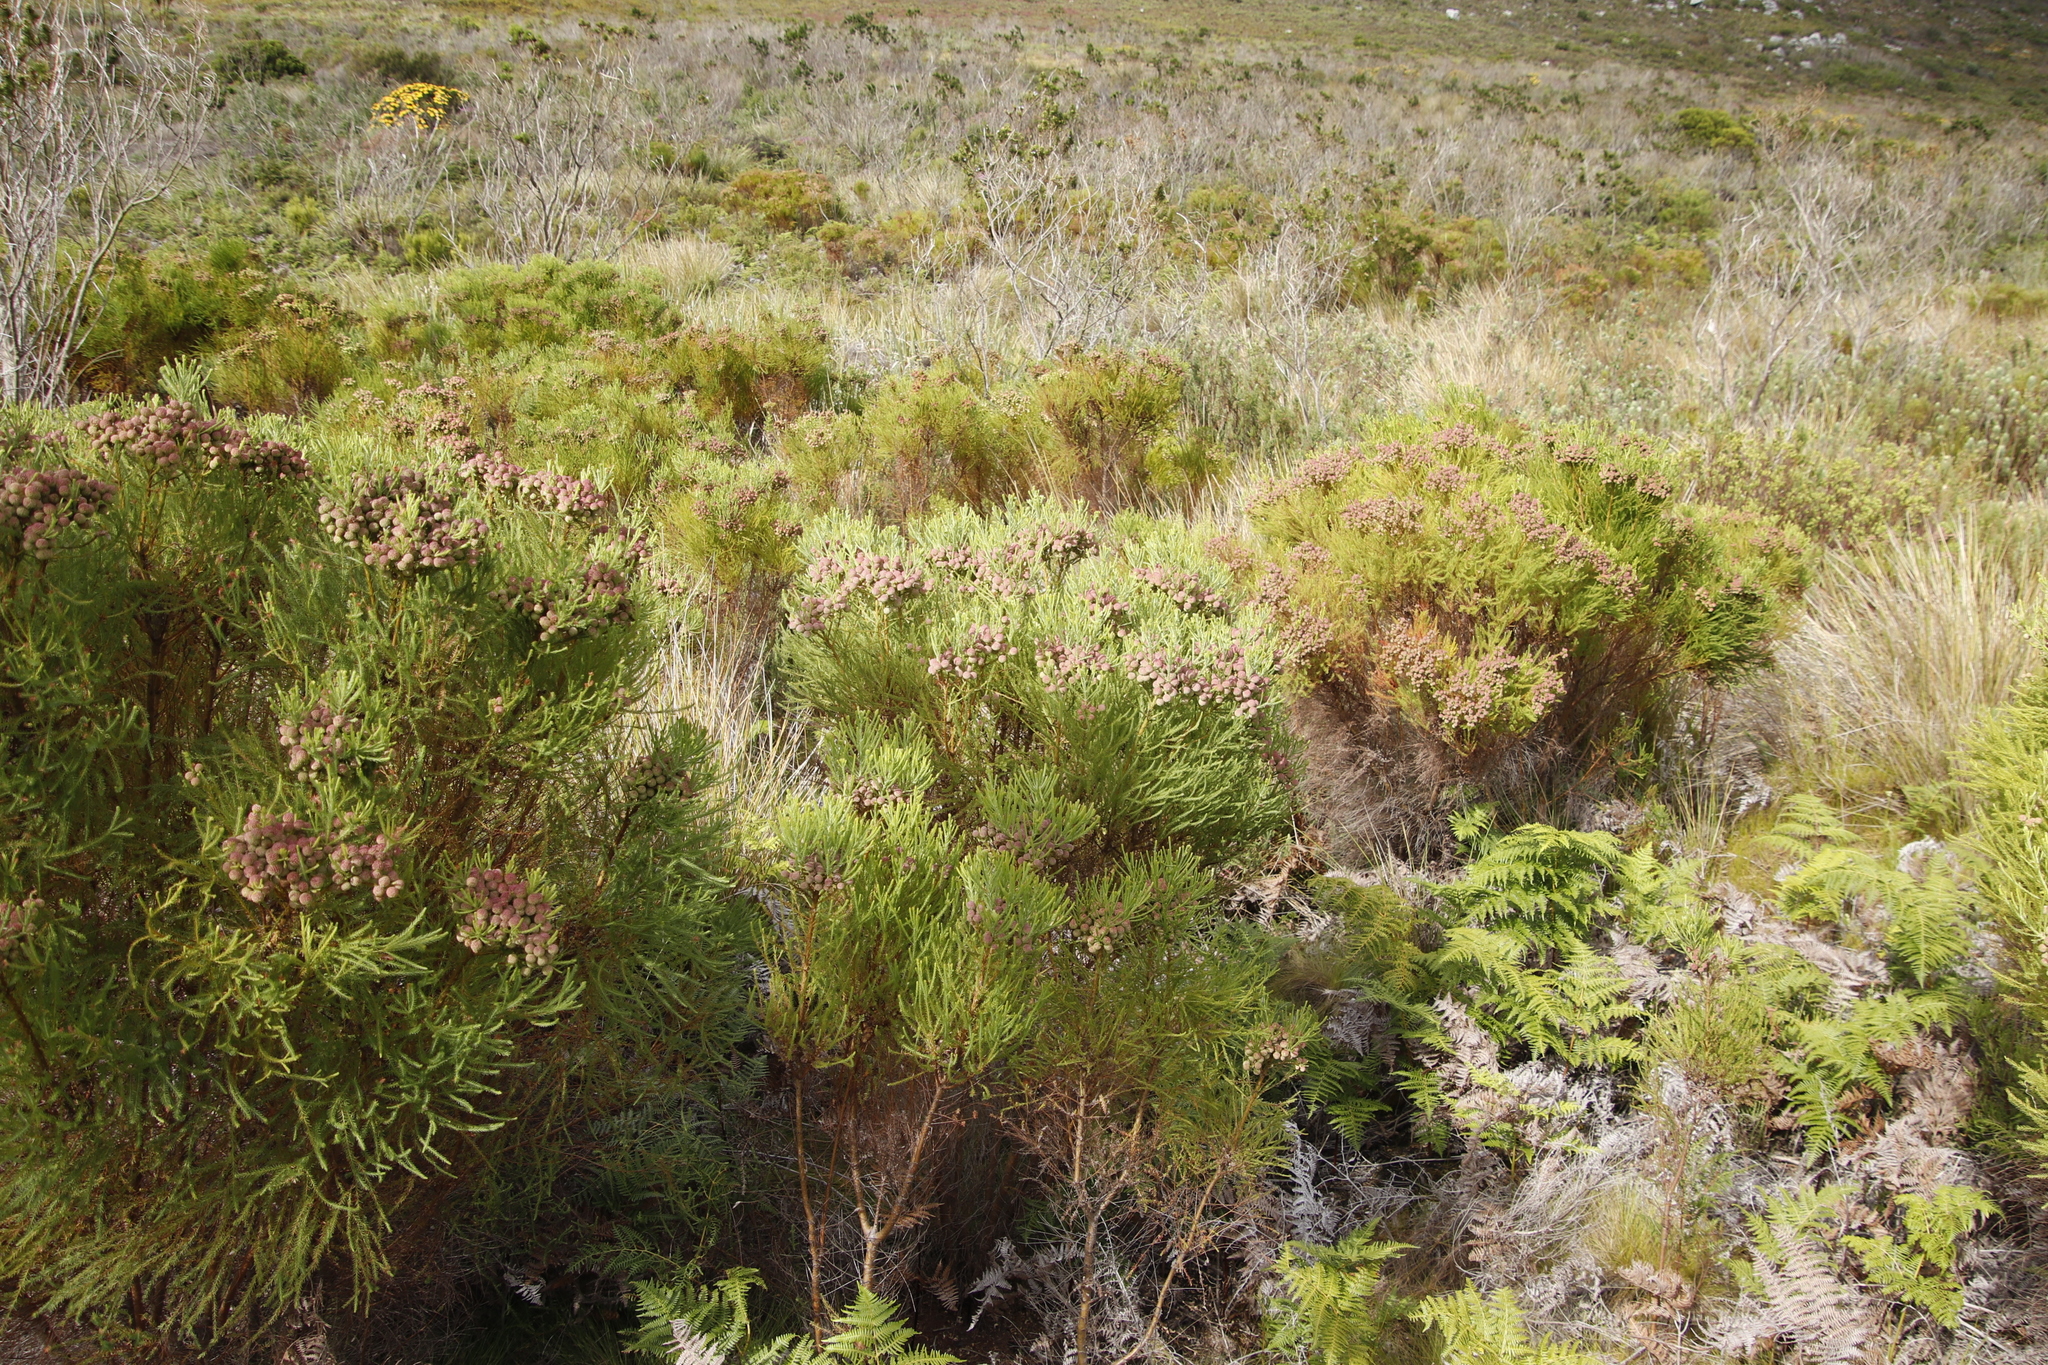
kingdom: Plantae
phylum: Tracheophyta
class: Magnoliopsida
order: Bruniales
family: Bruniaceae
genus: Berzelia
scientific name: Berzelia lanuginosa
